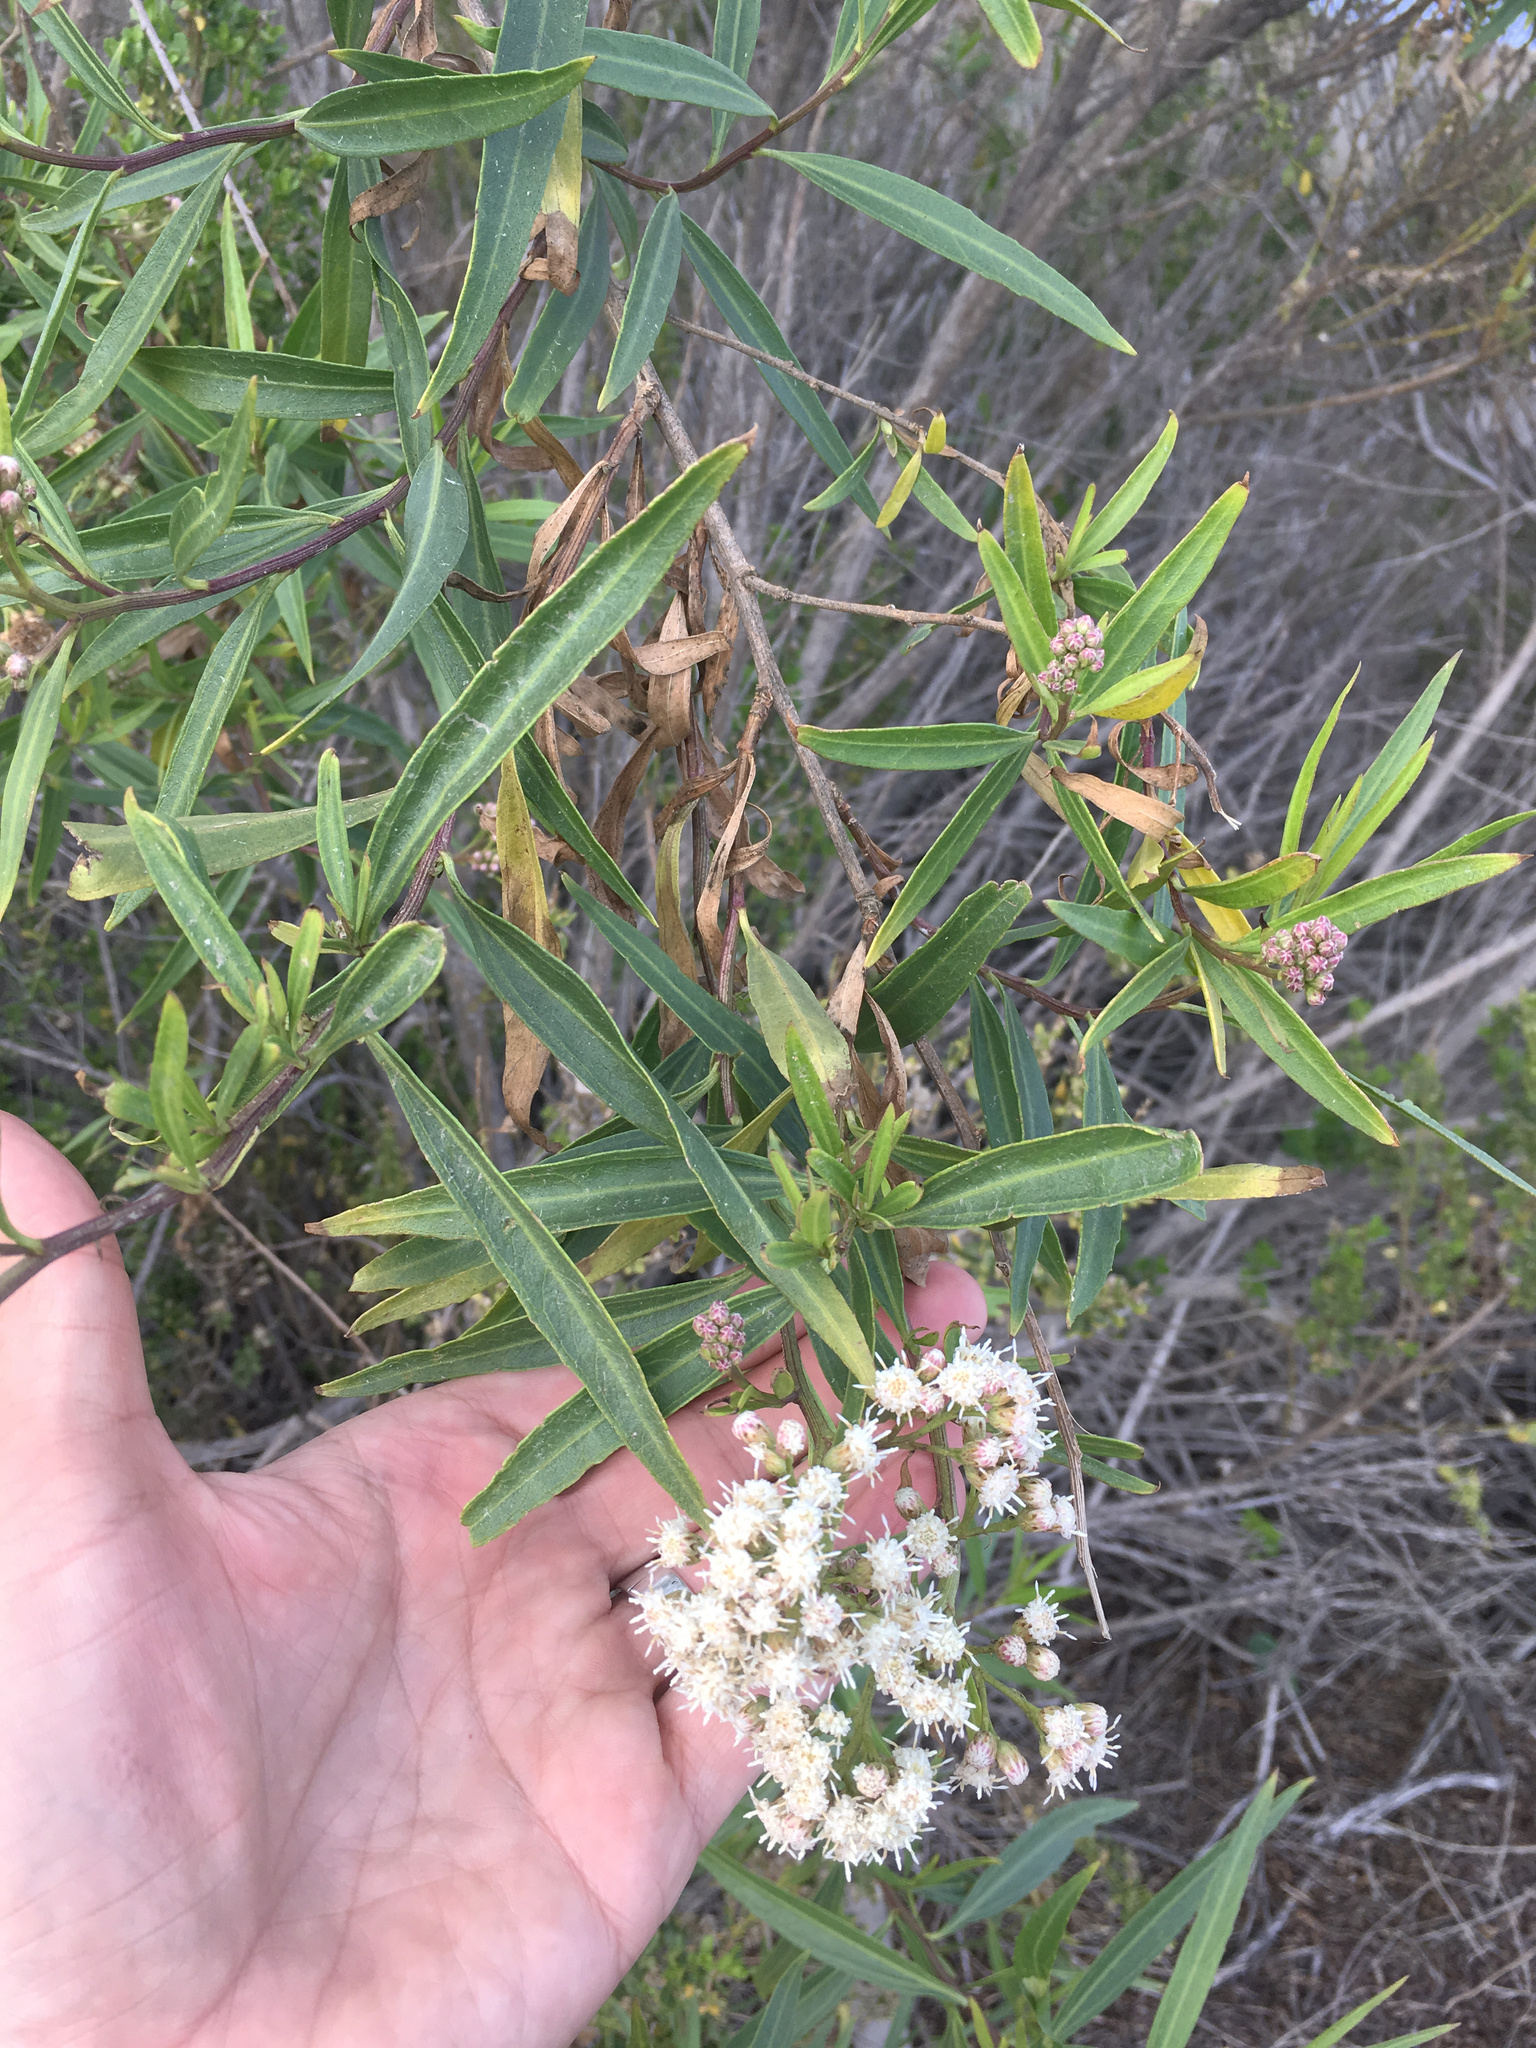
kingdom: Plantae
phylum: Tracheophyta
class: Magnoliopsida
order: Asterales
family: Asteraceae
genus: Baccharis
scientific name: Baccharis salicifolia
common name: Sticky baccharis
